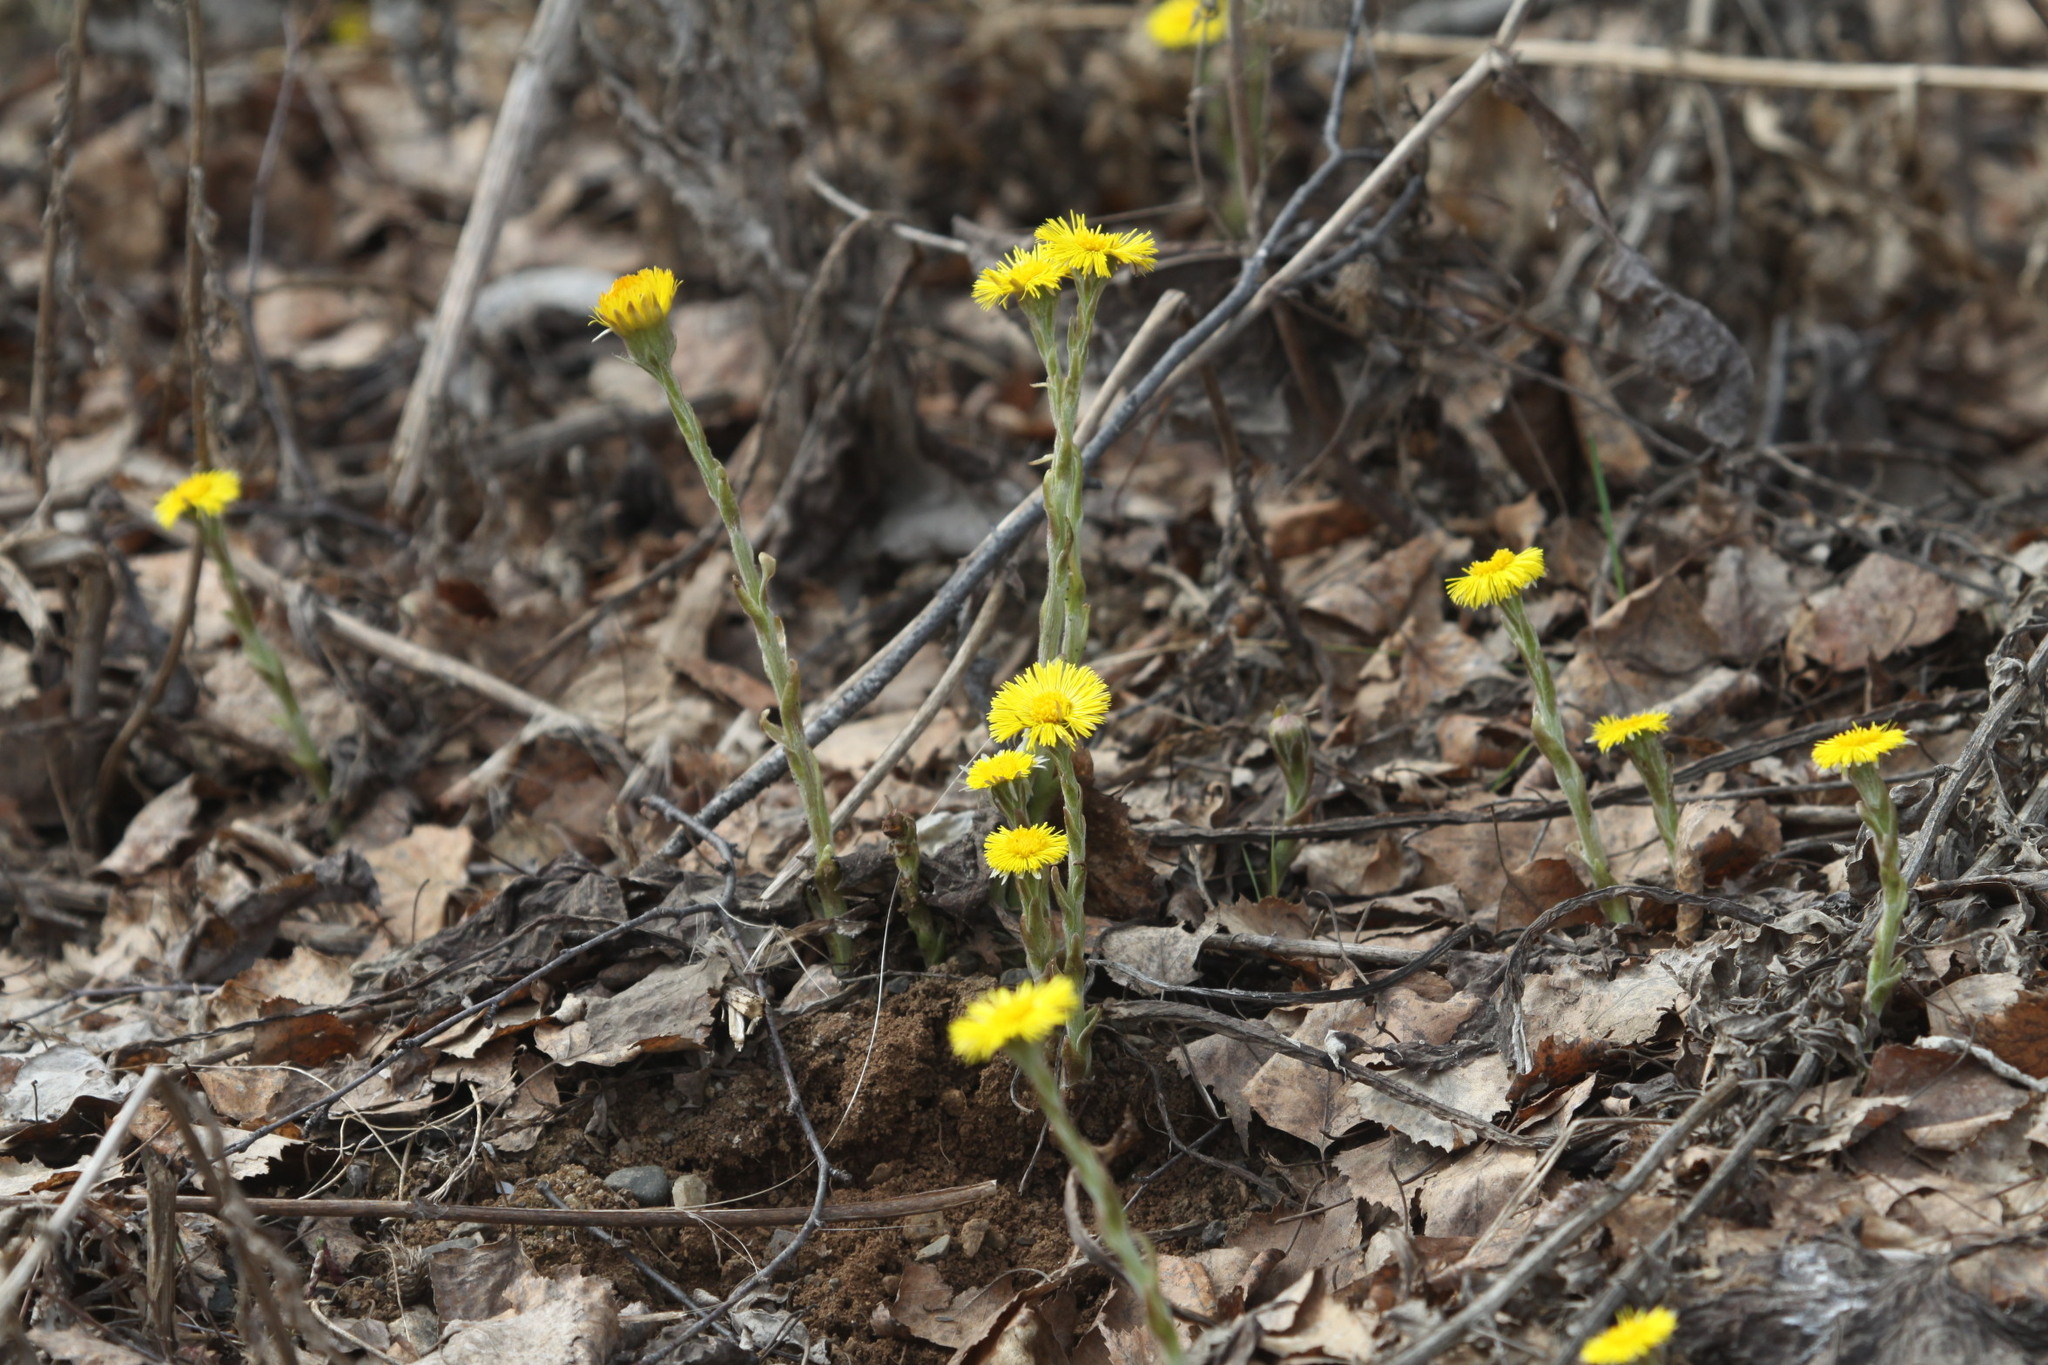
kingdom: Plantae
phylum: Tracheophyta
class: Magnoliopsida
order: Asterales
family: Asteraceae
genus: Tussilago
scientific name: Tussilago farfara
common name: Coltsfoot
